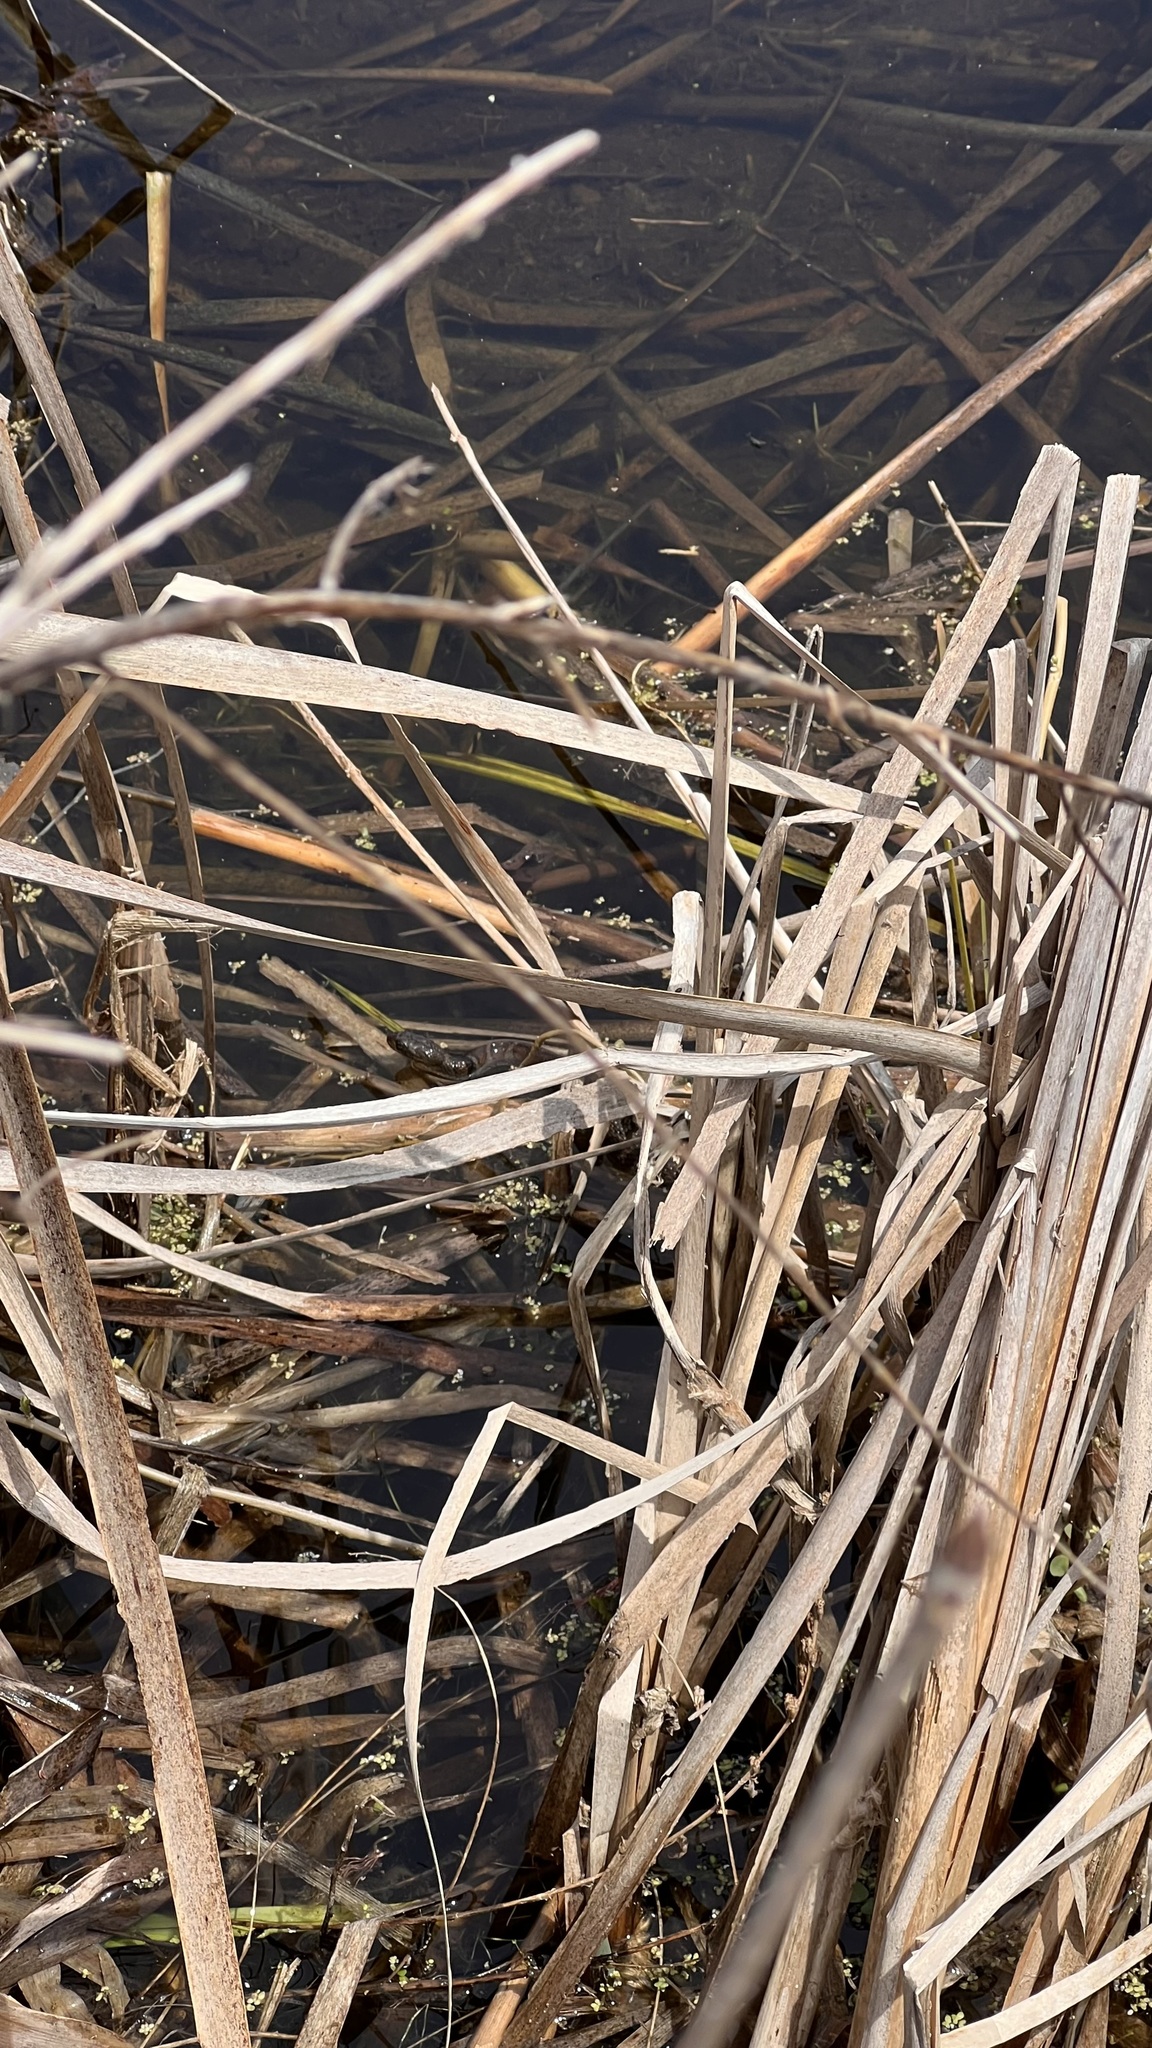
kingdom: Animalia
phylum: Chordata
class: Squamata
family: Colubridae
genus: Nerodia
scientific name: Nerodia sipedon
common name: Northern water snake
